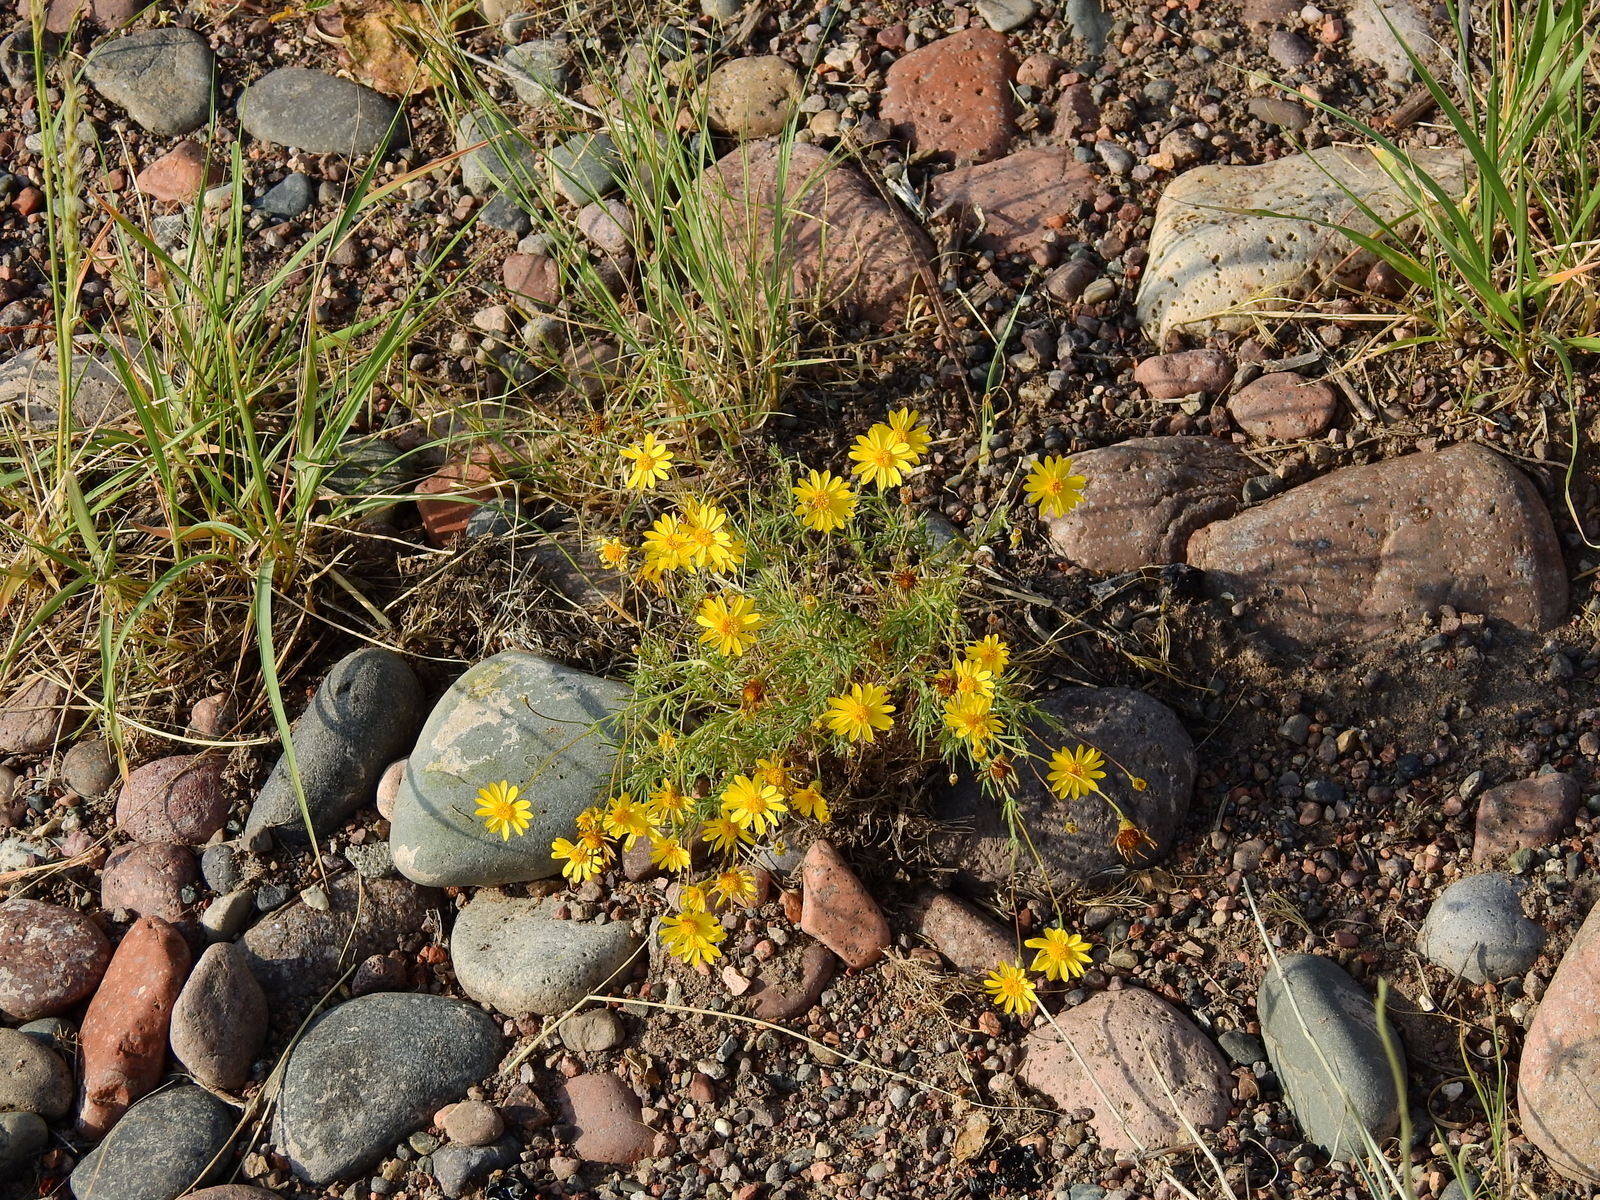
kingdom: Plantae
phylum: Tracheophyta
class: Magnoliopsida
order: Asterales
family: Asteraceae
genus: Thymophylla
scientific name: Thymophylla pentachaeta
